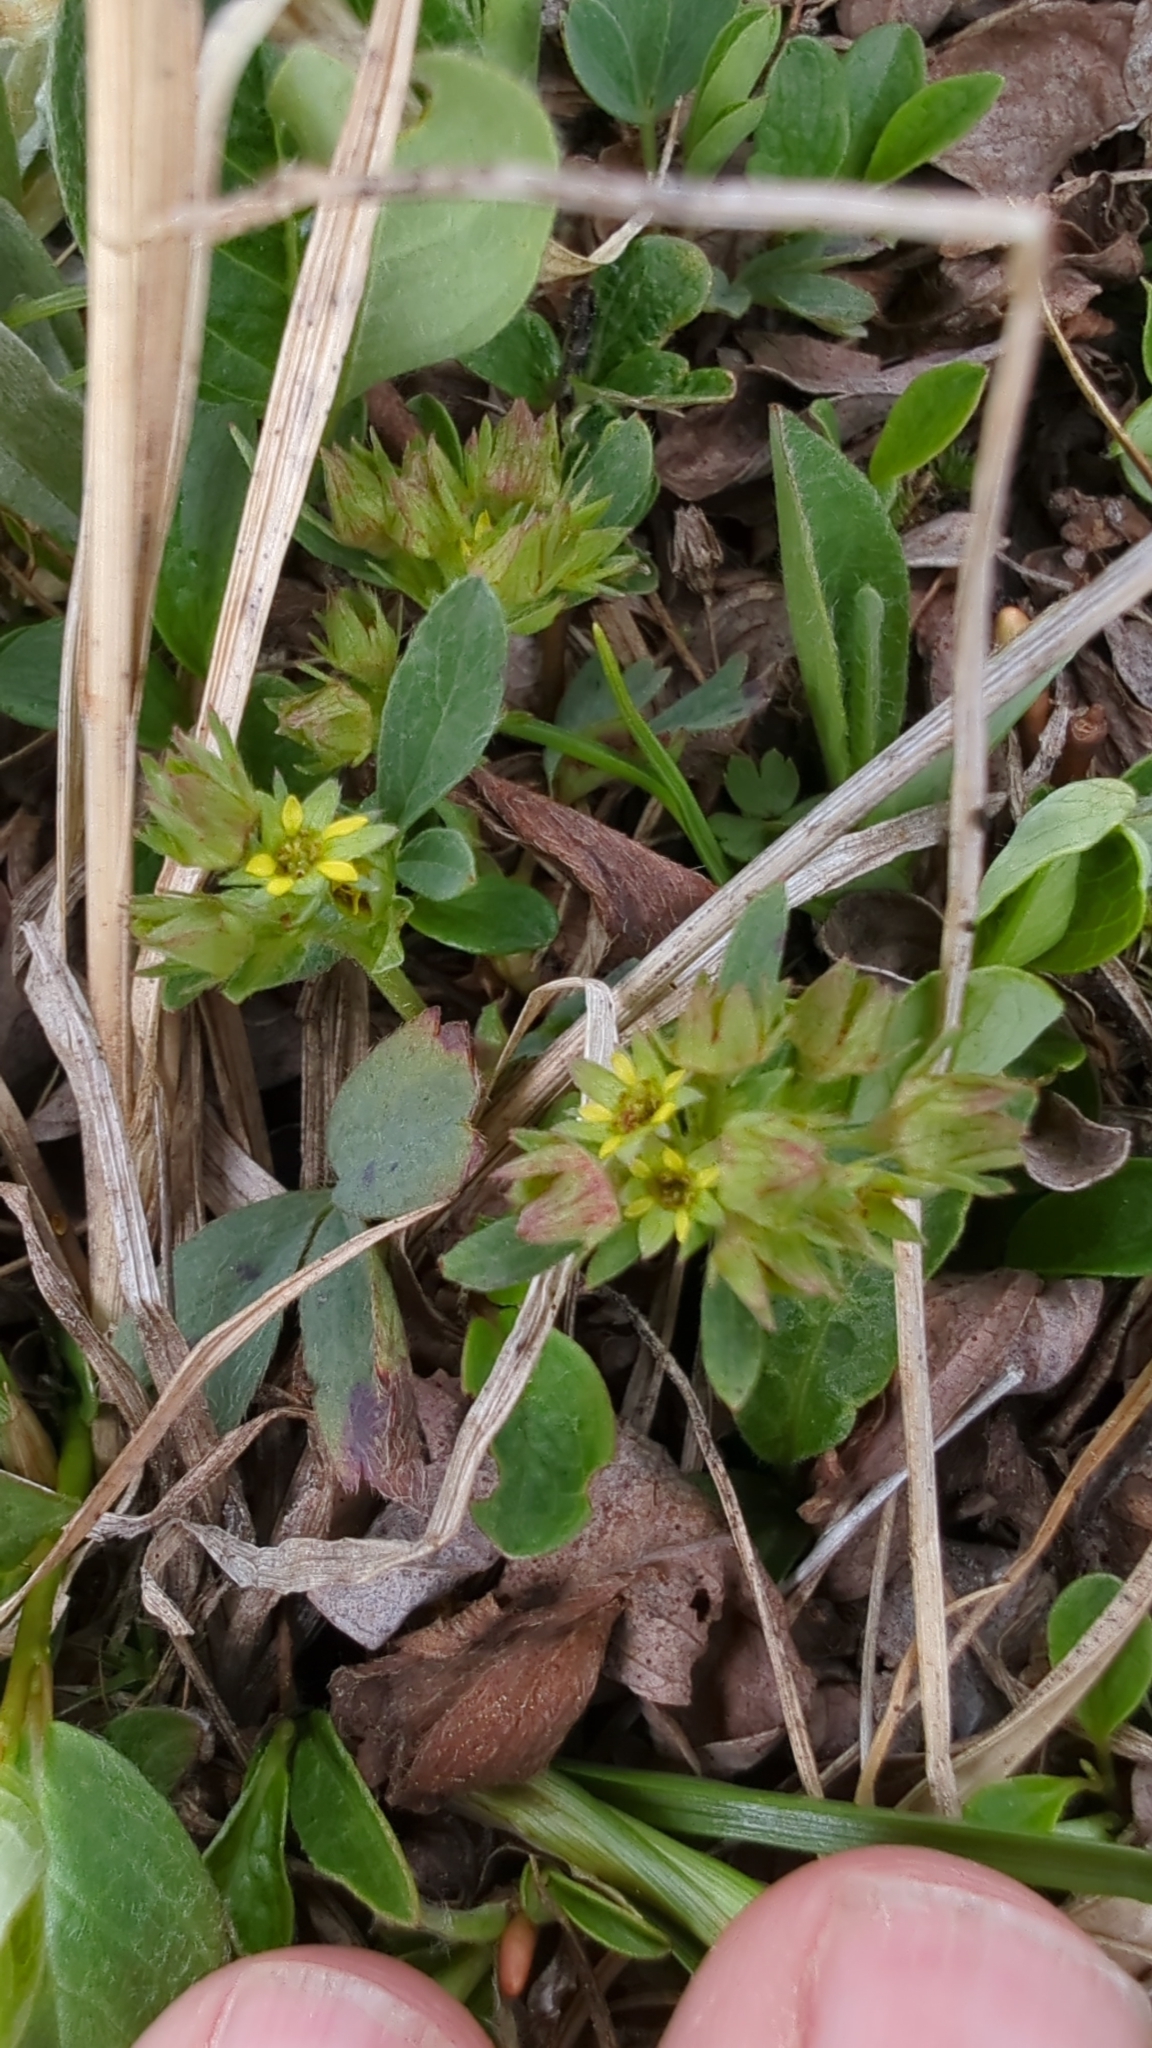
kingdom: Plantae
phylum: Tracheophyta
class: Magnoliopsida
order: Rosales
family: Rosaceae
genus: Sibbaldia
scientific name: Sibbaldia procumbens
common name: Creeping sibbaldia
